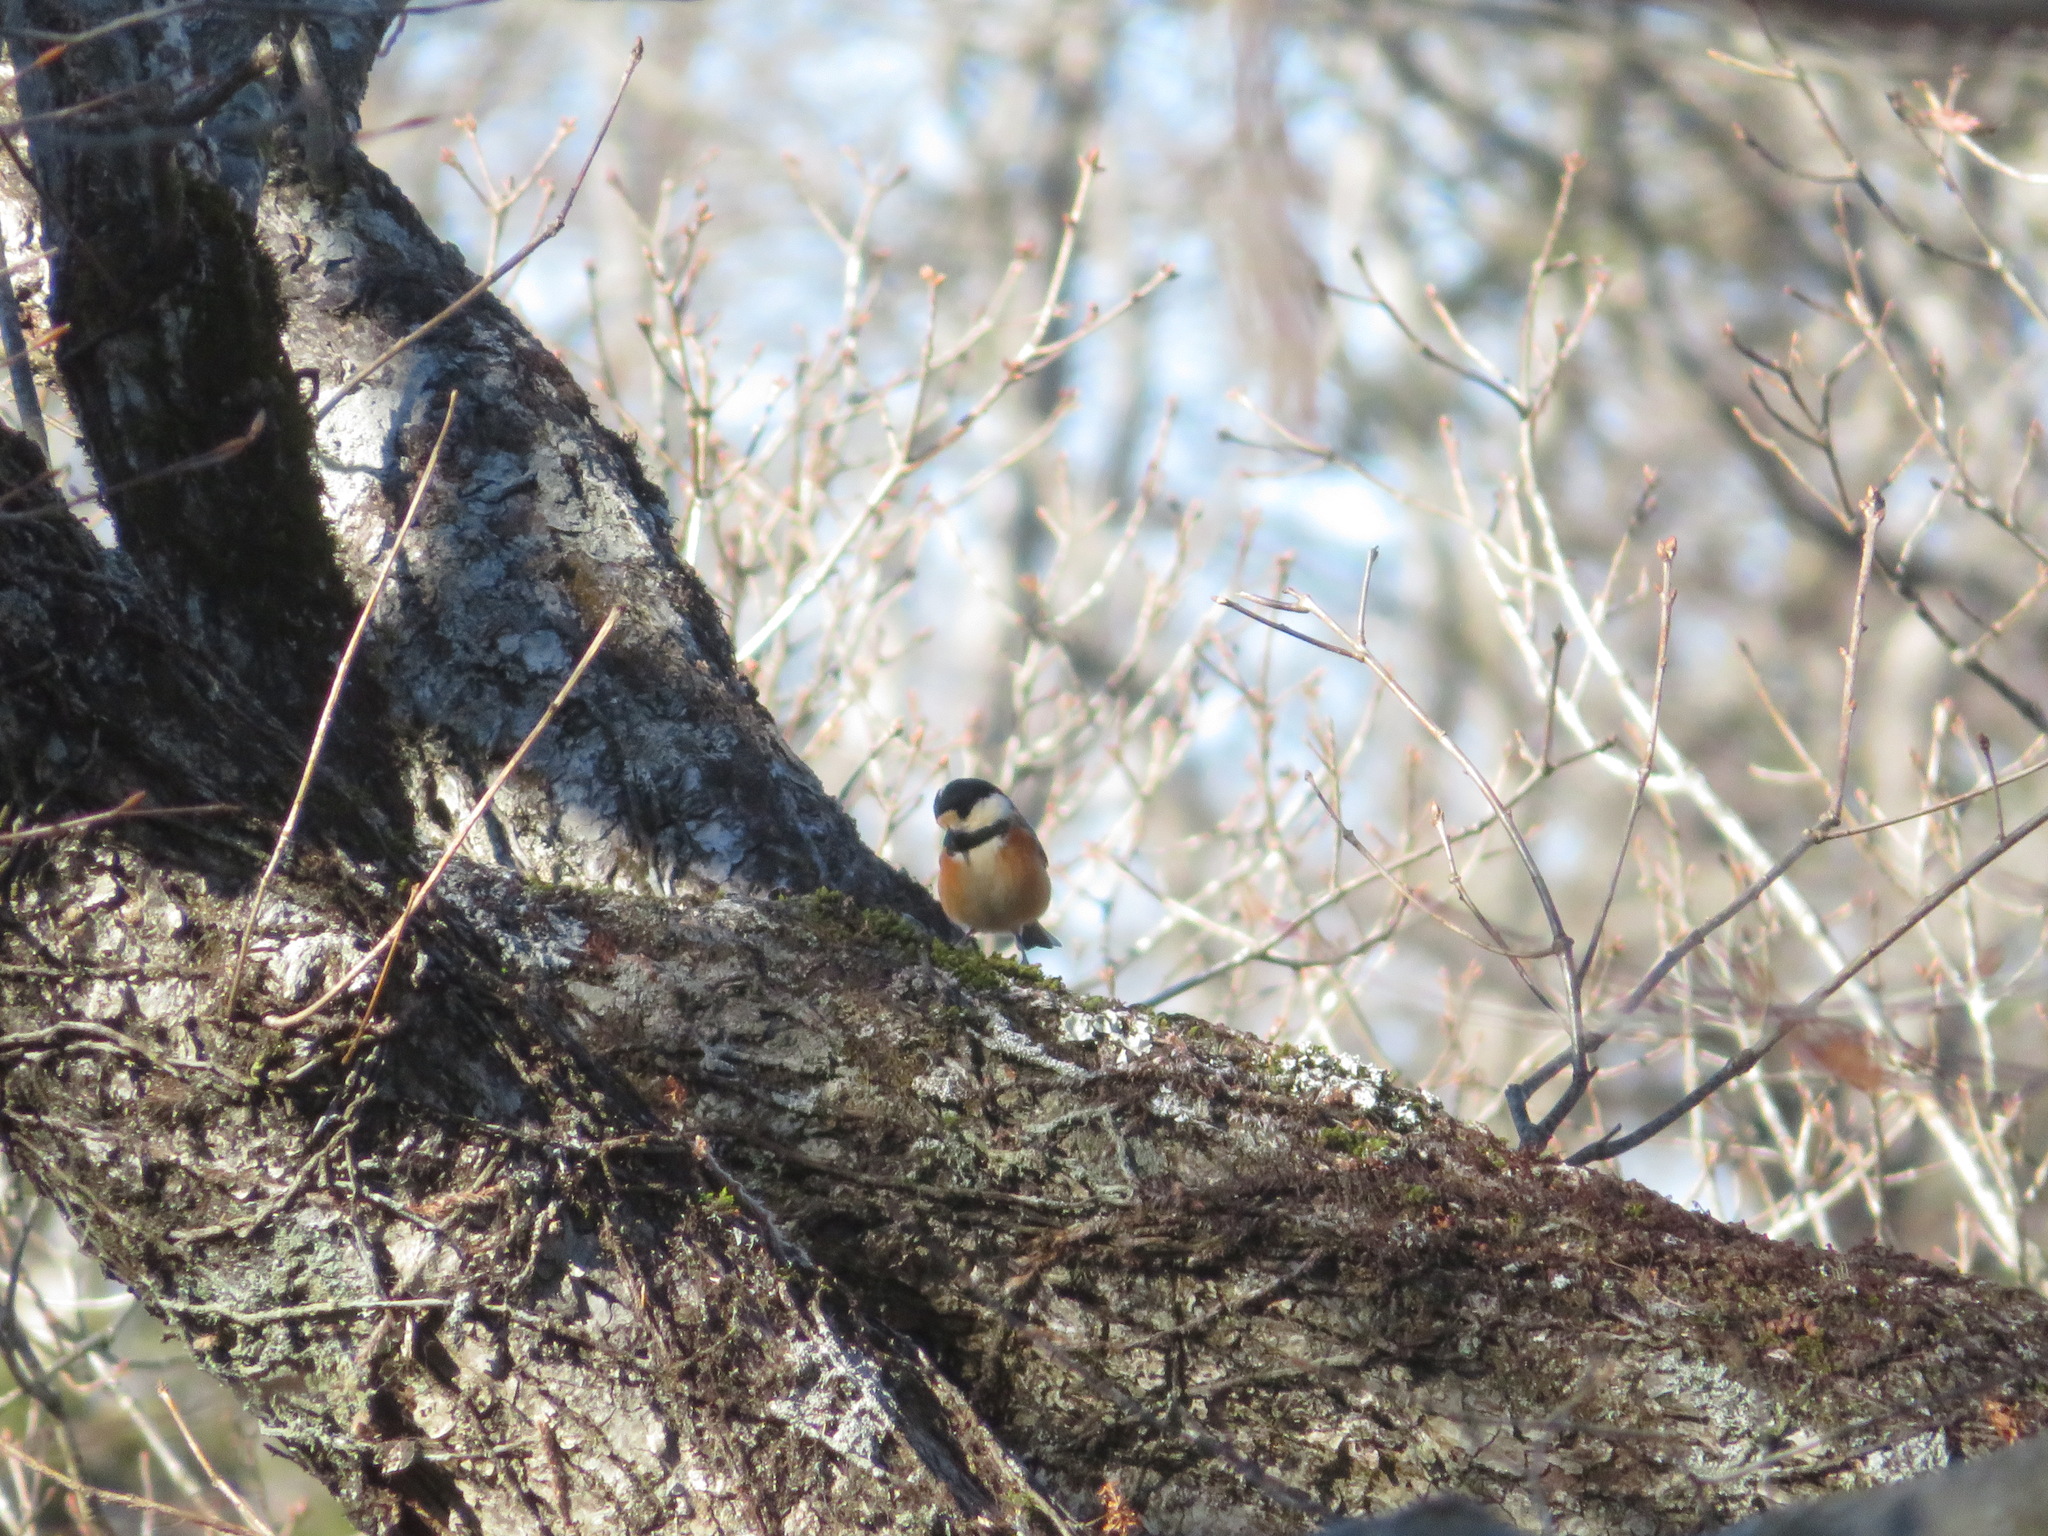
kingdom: Animalia
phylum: Chordata
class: Aves
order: Passeriformes
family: Paridae
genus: Poecile
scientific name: Poecile varius
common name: Varied tit
